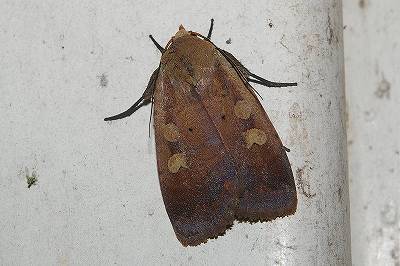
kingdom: Animalia
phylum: Arthropoda
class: Insecta
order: Lepidoptera
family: Noctuidae
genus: Sineugraphe
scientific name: Sineugraphe exusta
